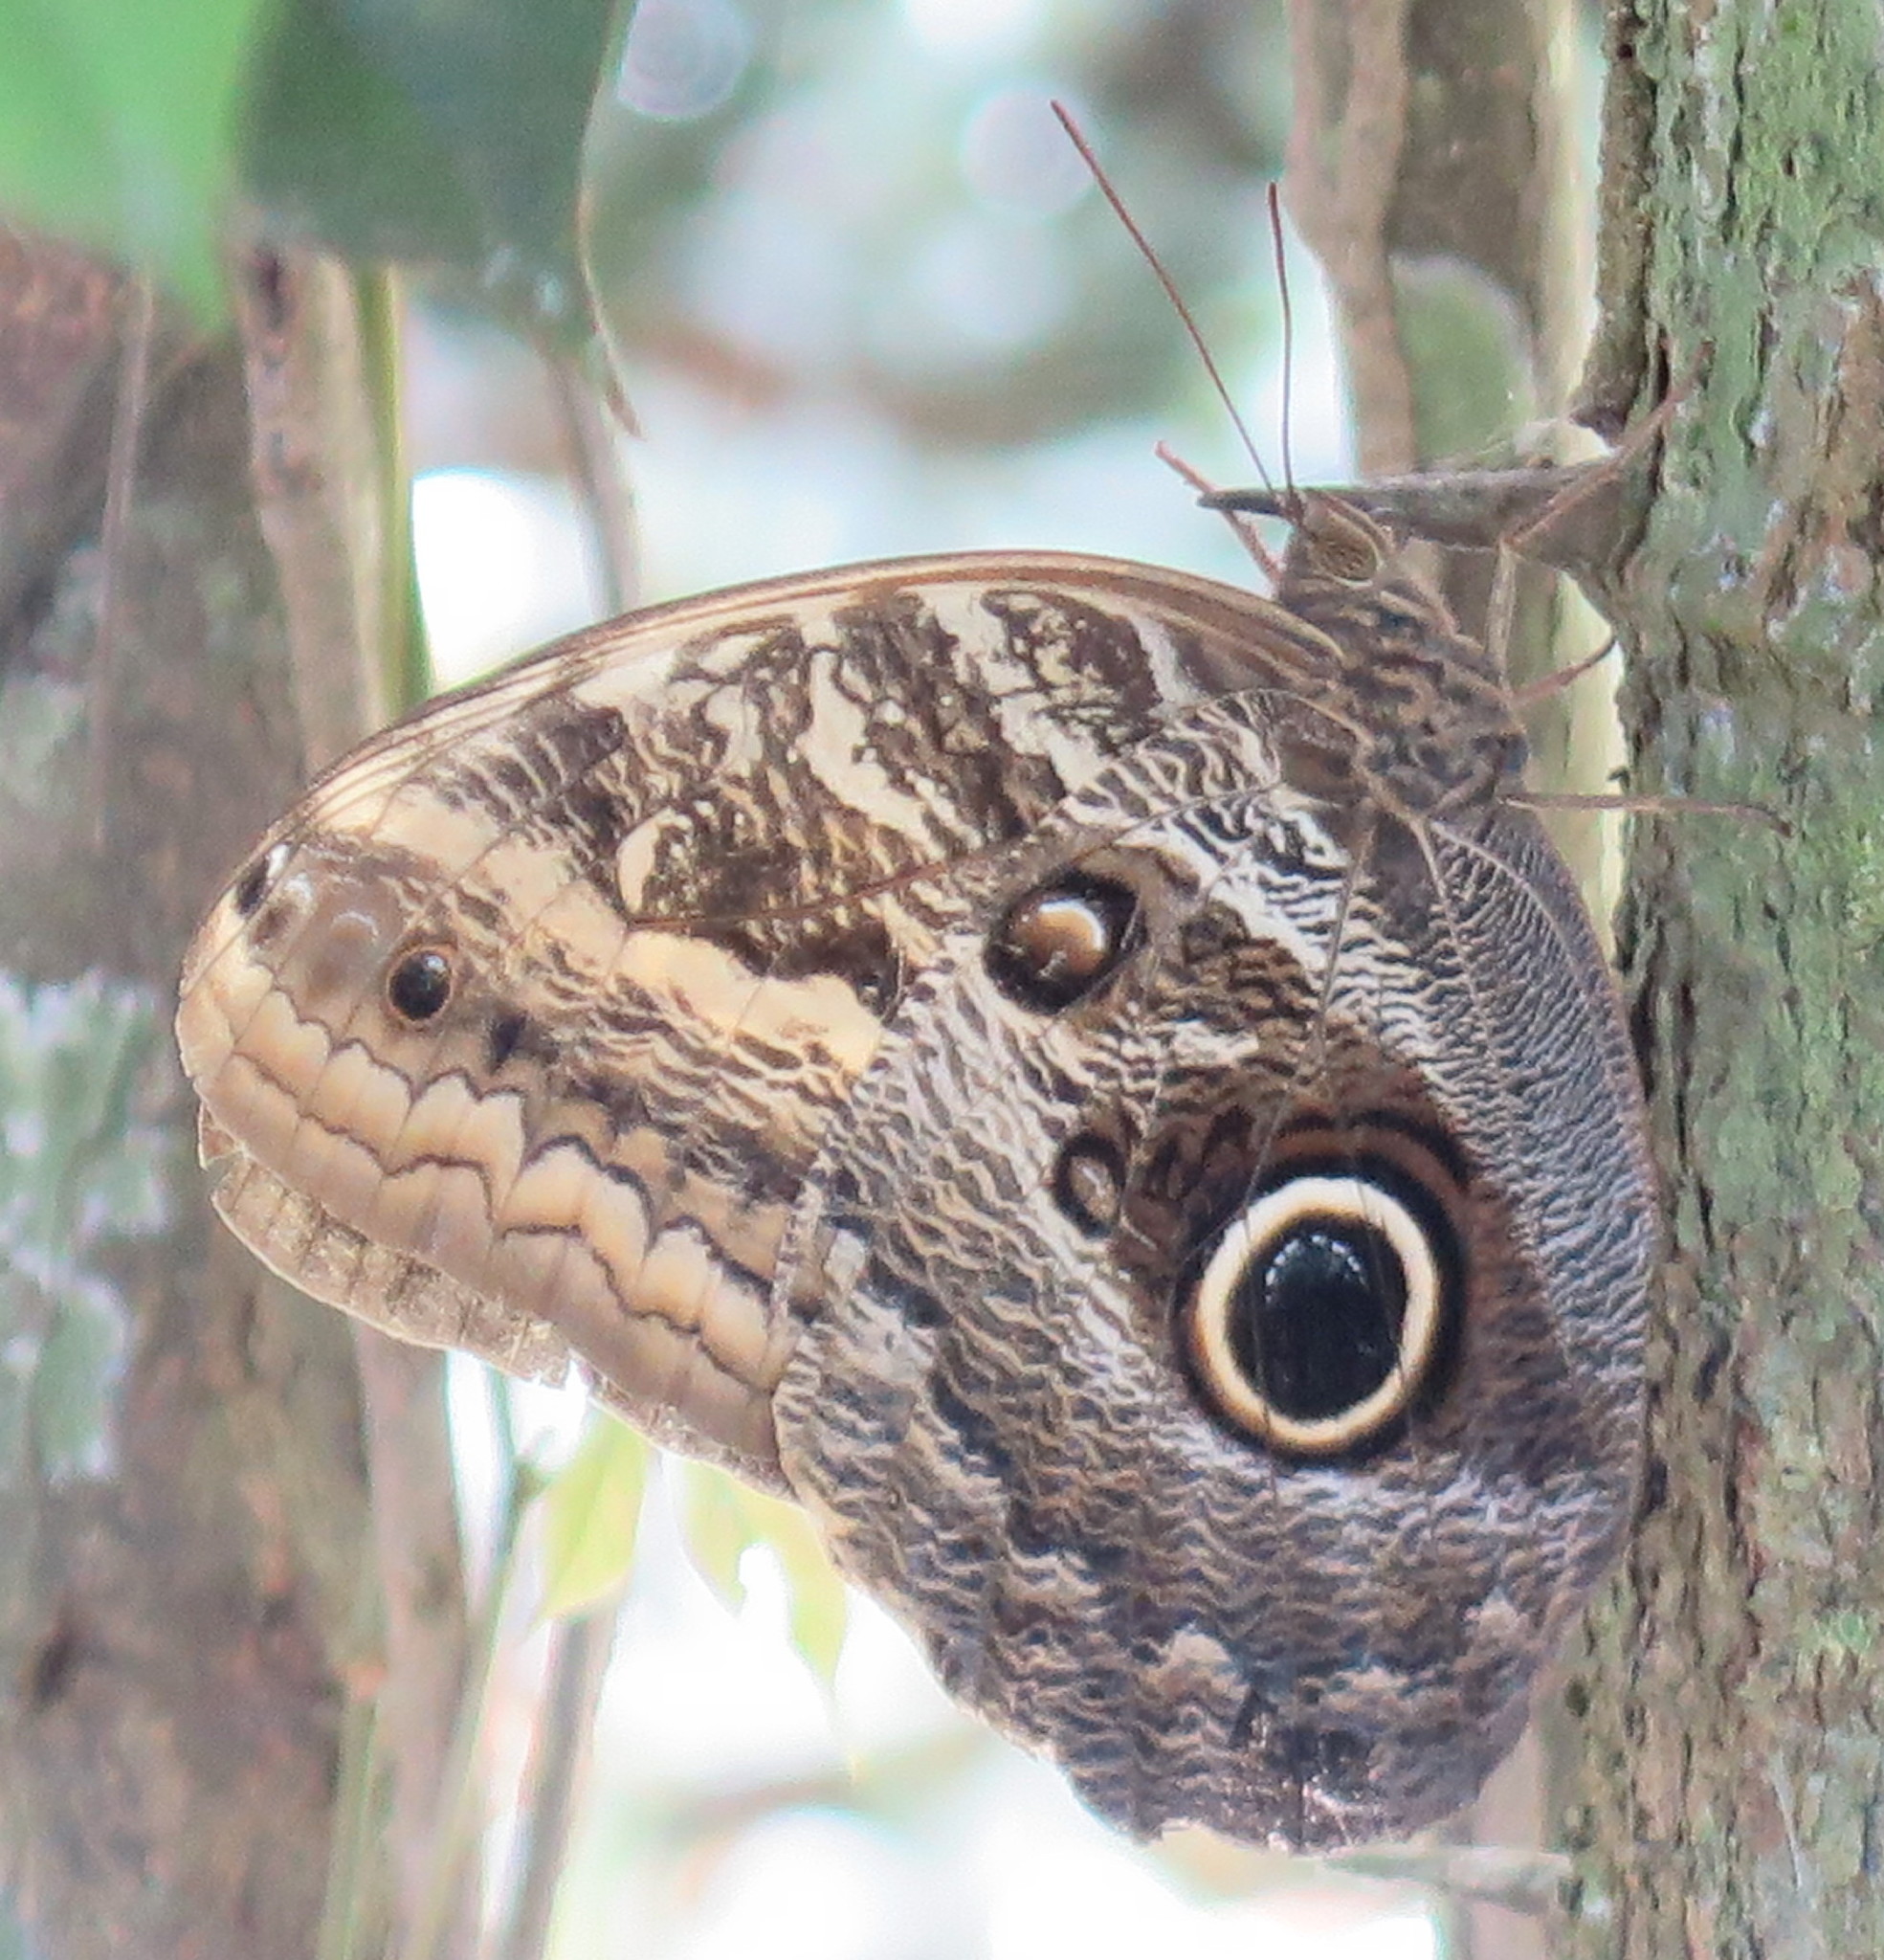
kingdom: Animalia
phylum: Arthropoda
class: Insecta
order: Lepidoptera
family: Nymphalidae
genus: Caligo
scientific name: Caligo teucer
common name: Teucer owl butterfly
